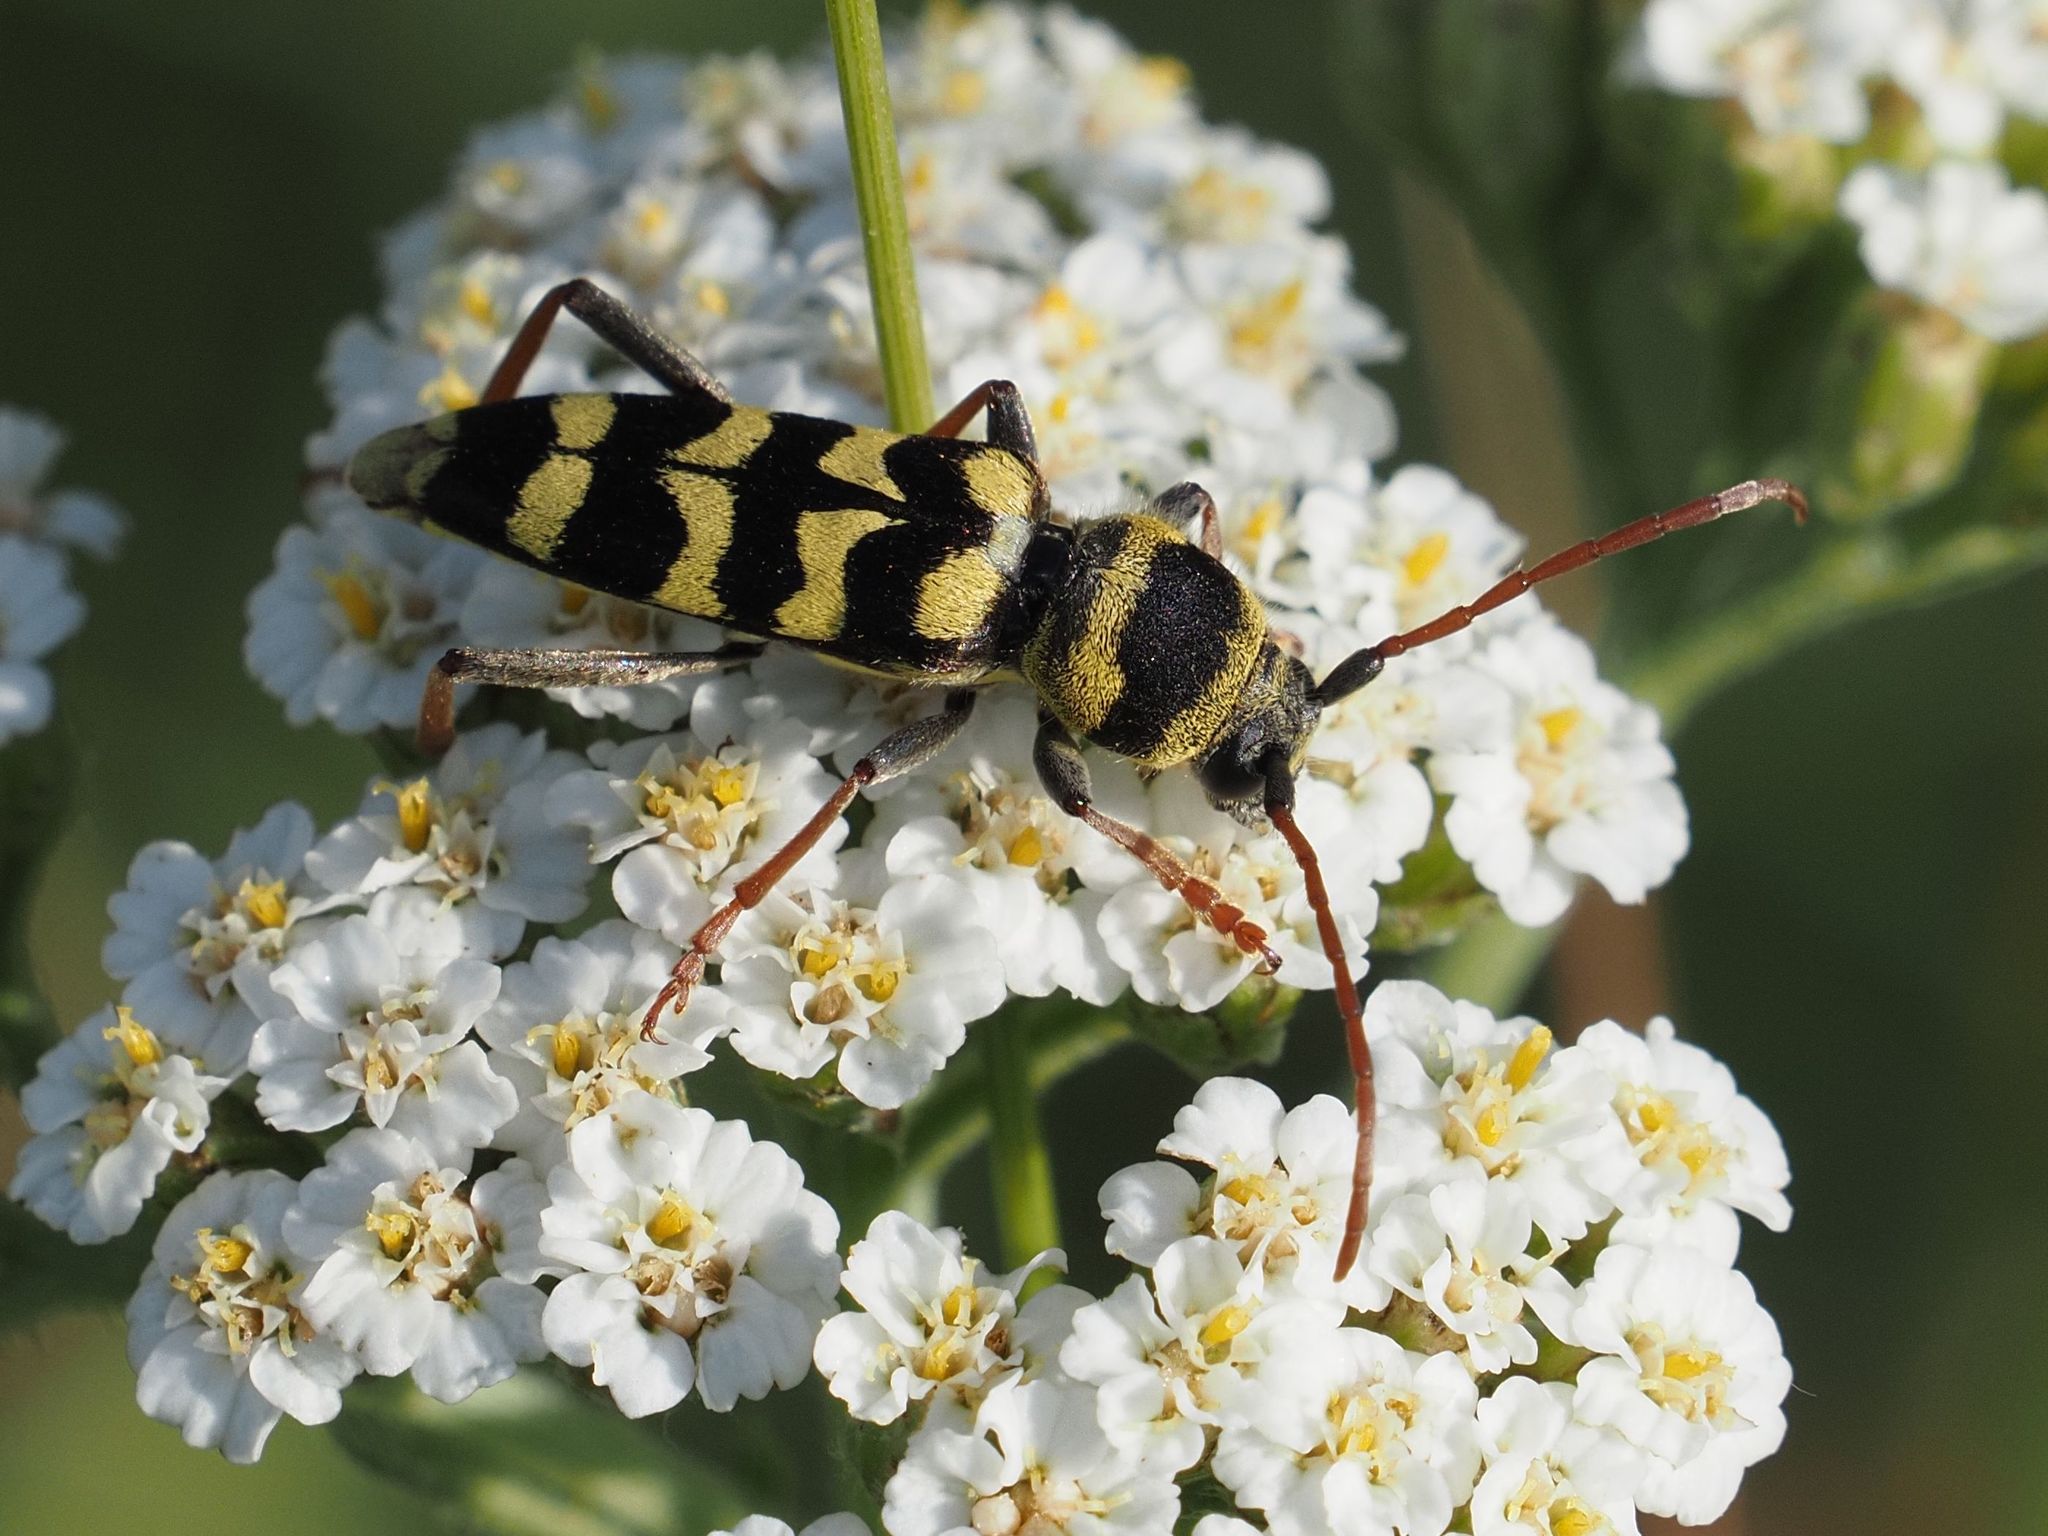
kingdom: Animalia
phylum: Arthropoda
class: Insecta
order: Coleoptera
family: Cerambycidae
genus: Plagionotus
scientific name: Plagionotus floralis
